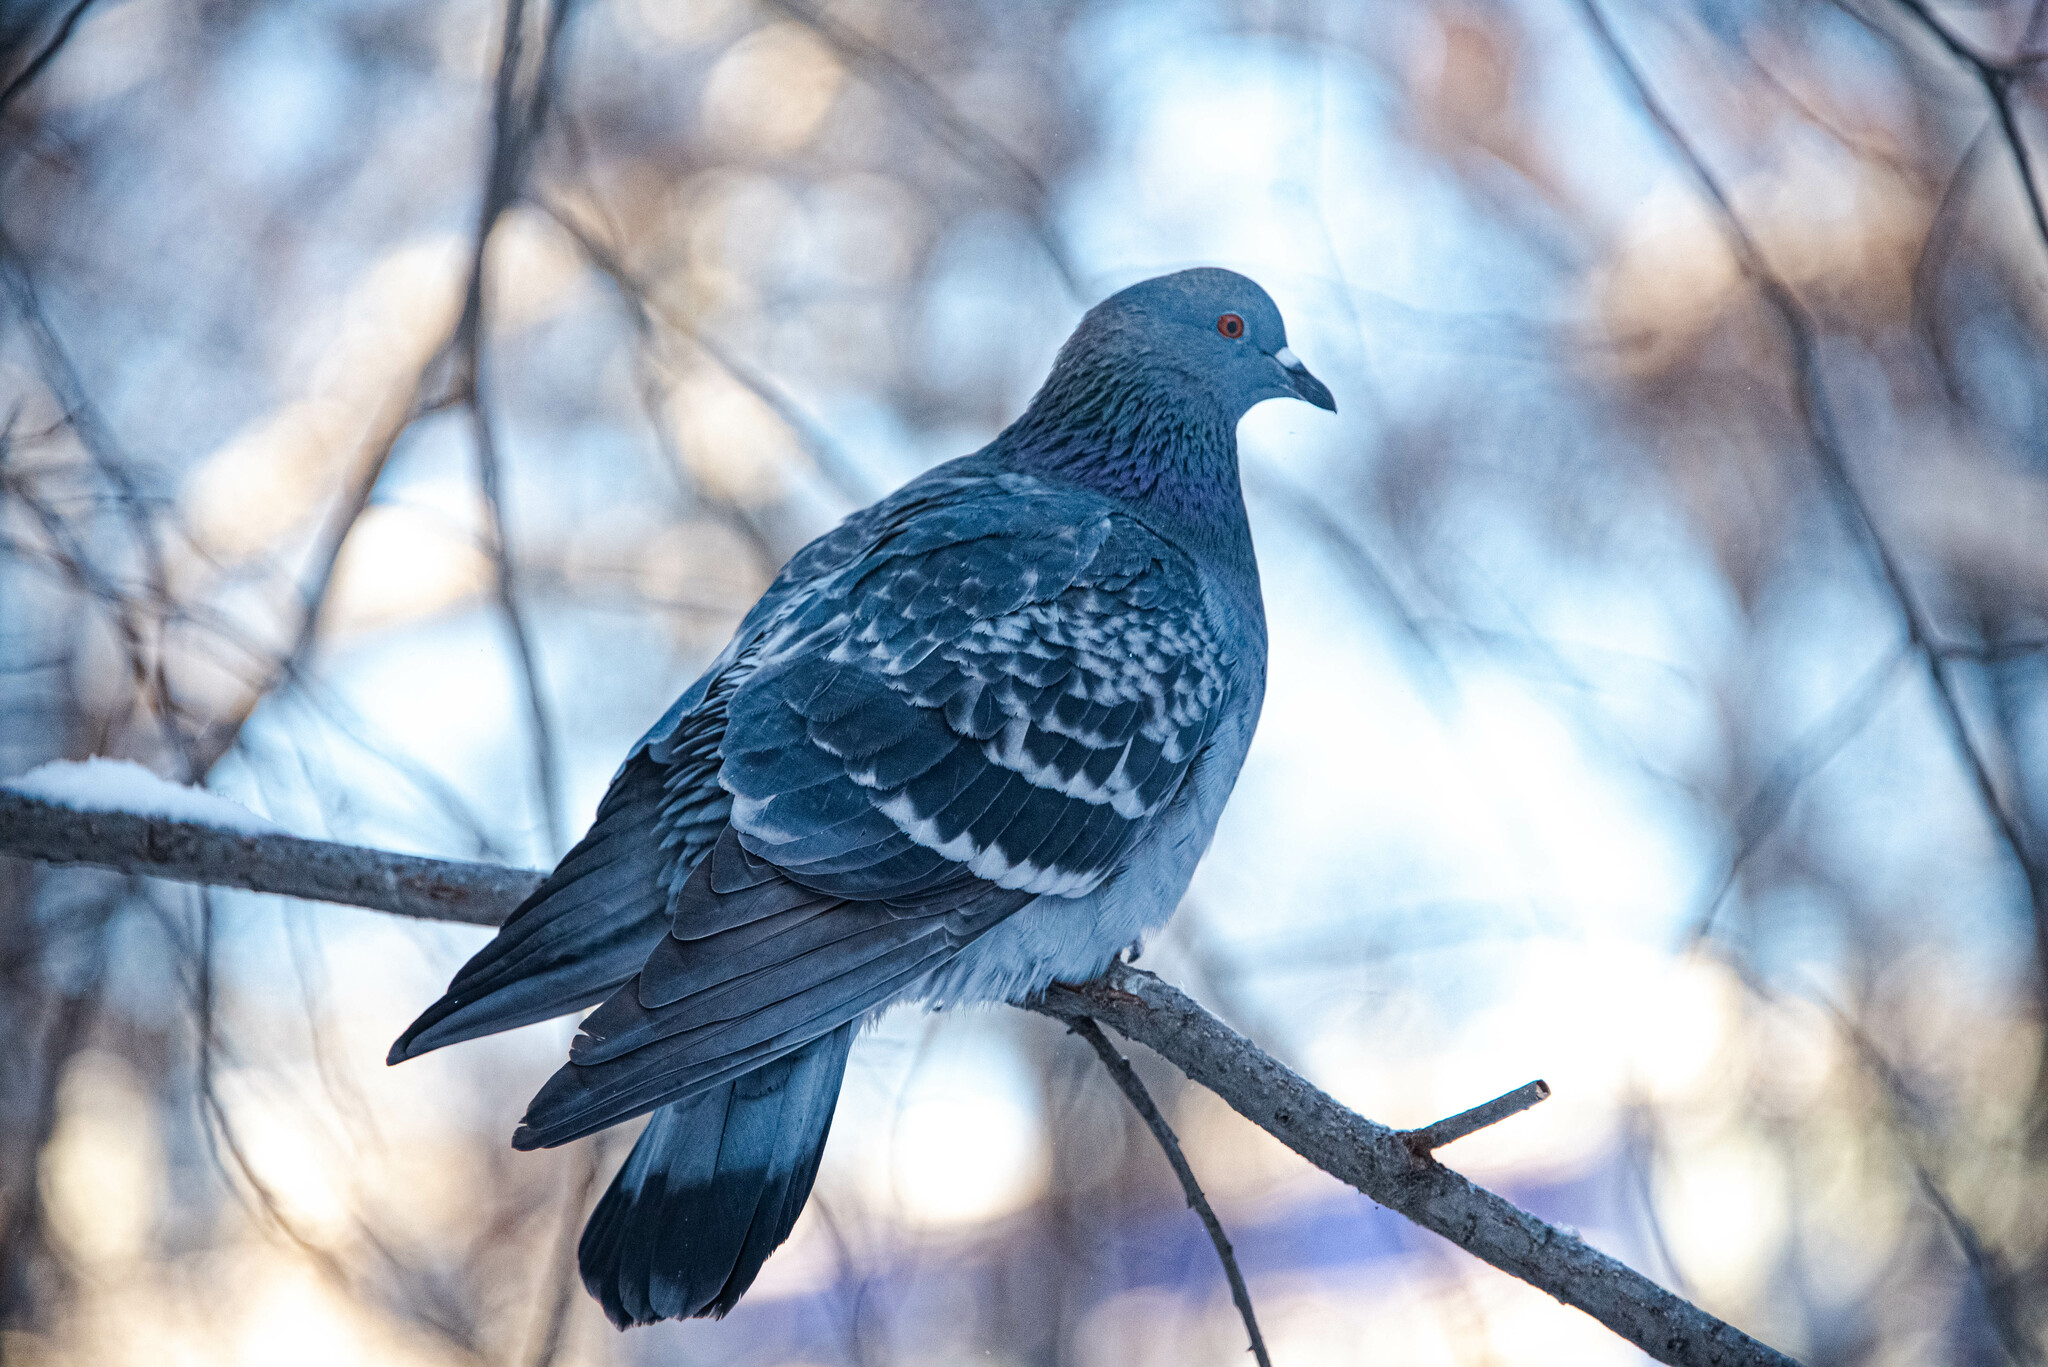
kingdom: Animalia
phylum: Chordata
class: Aves
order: Columbiformes
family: Columbidae
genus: Columba
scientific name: Columba livia
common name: Rock pigeon
